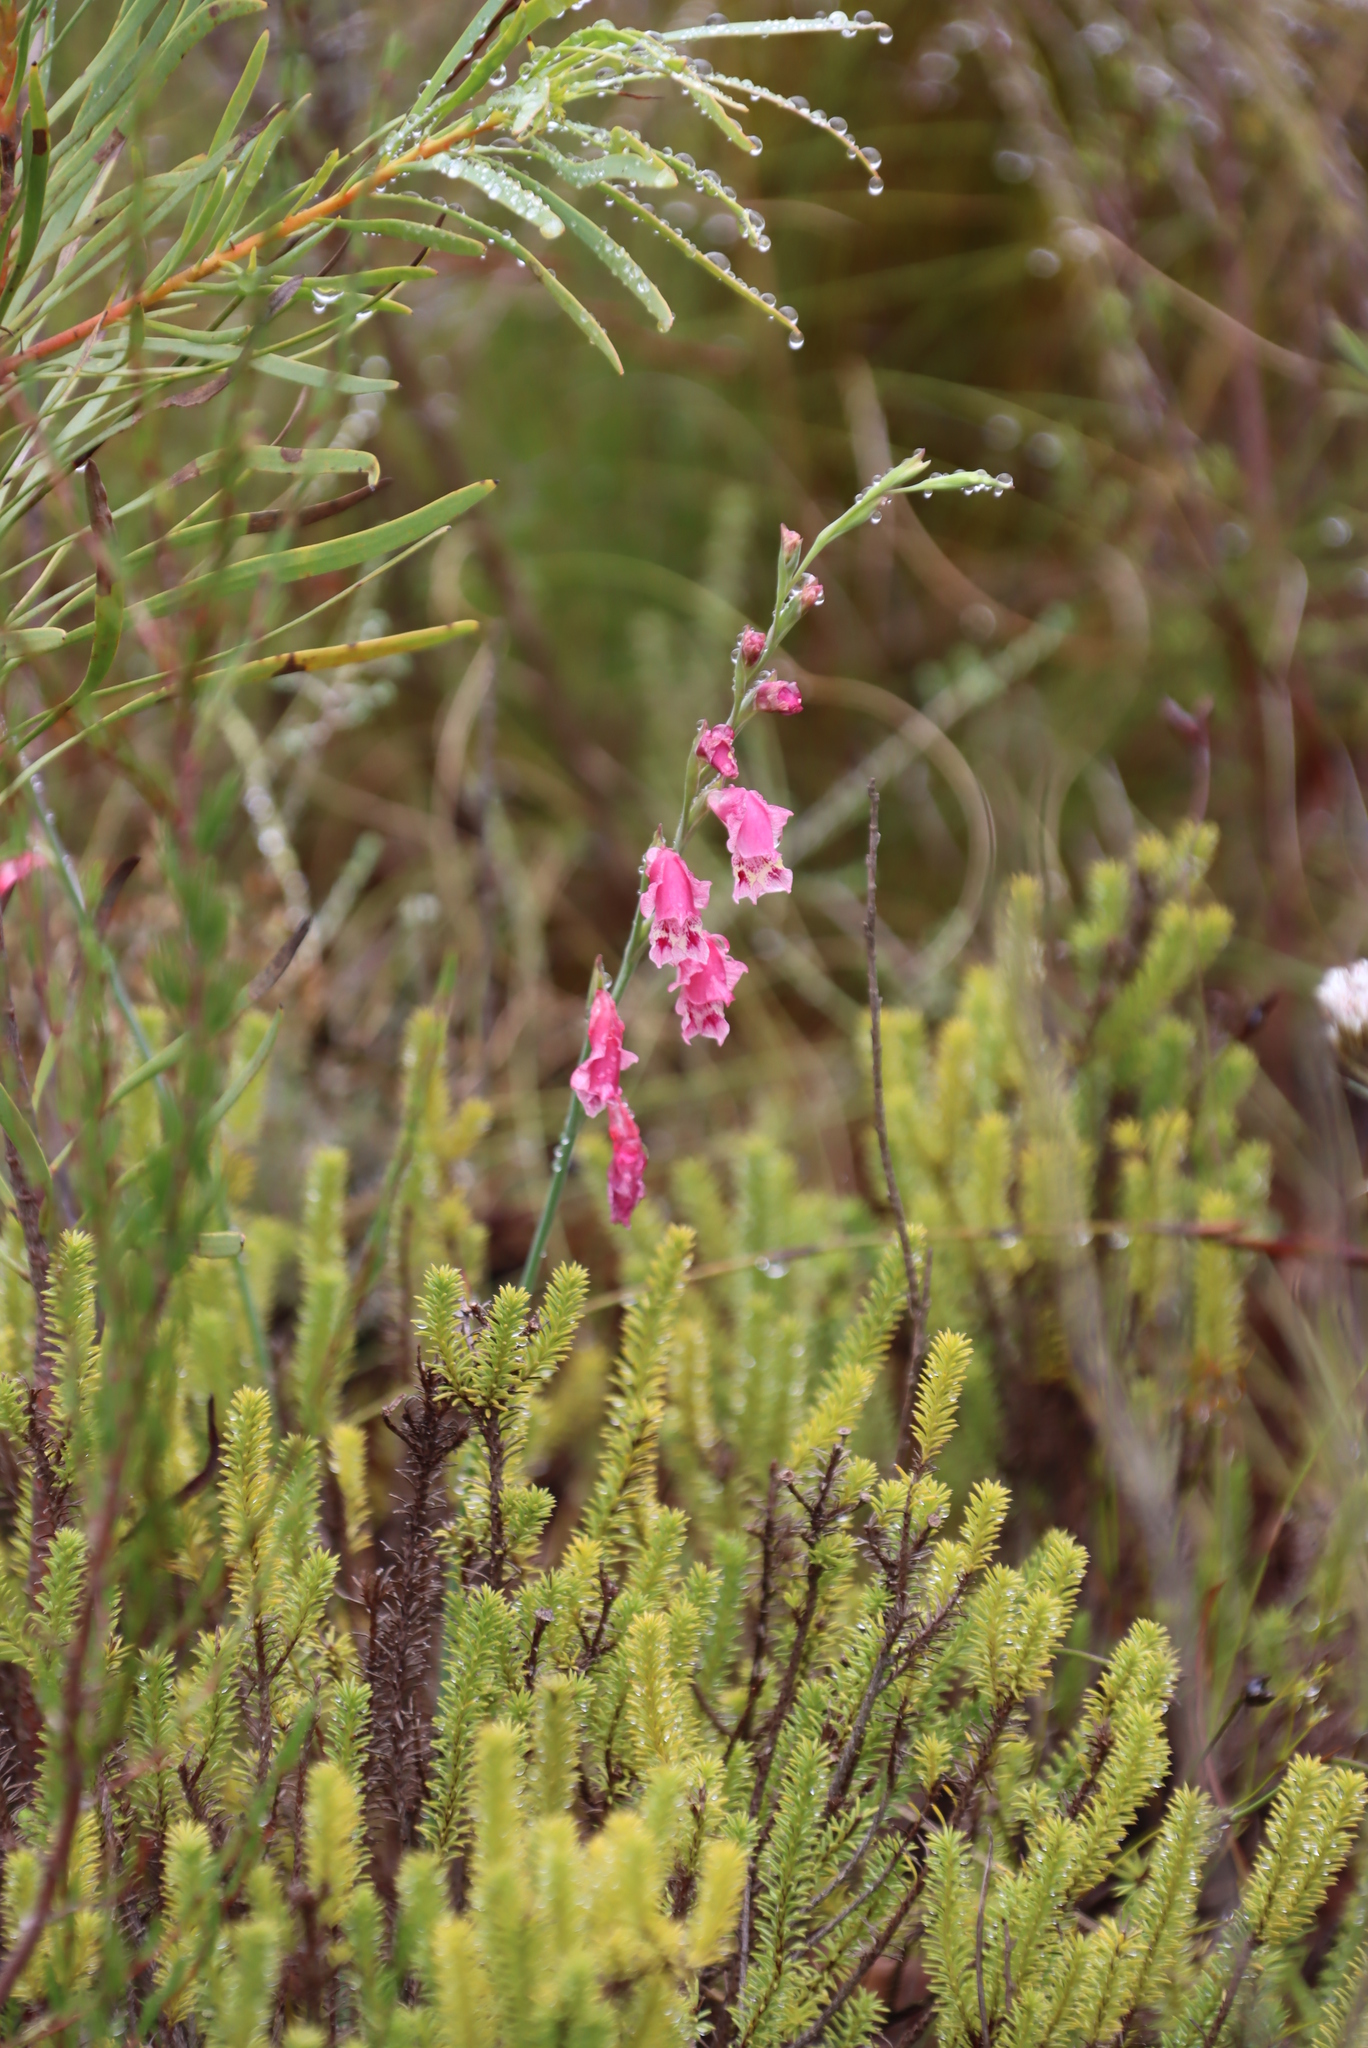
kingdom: Plantae
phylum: Tracheophyta
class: Liliopsida
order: Asparagales
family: Iridaceae
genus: Gladiolus
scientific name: Gladiolus brevifolius
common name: March pypie
